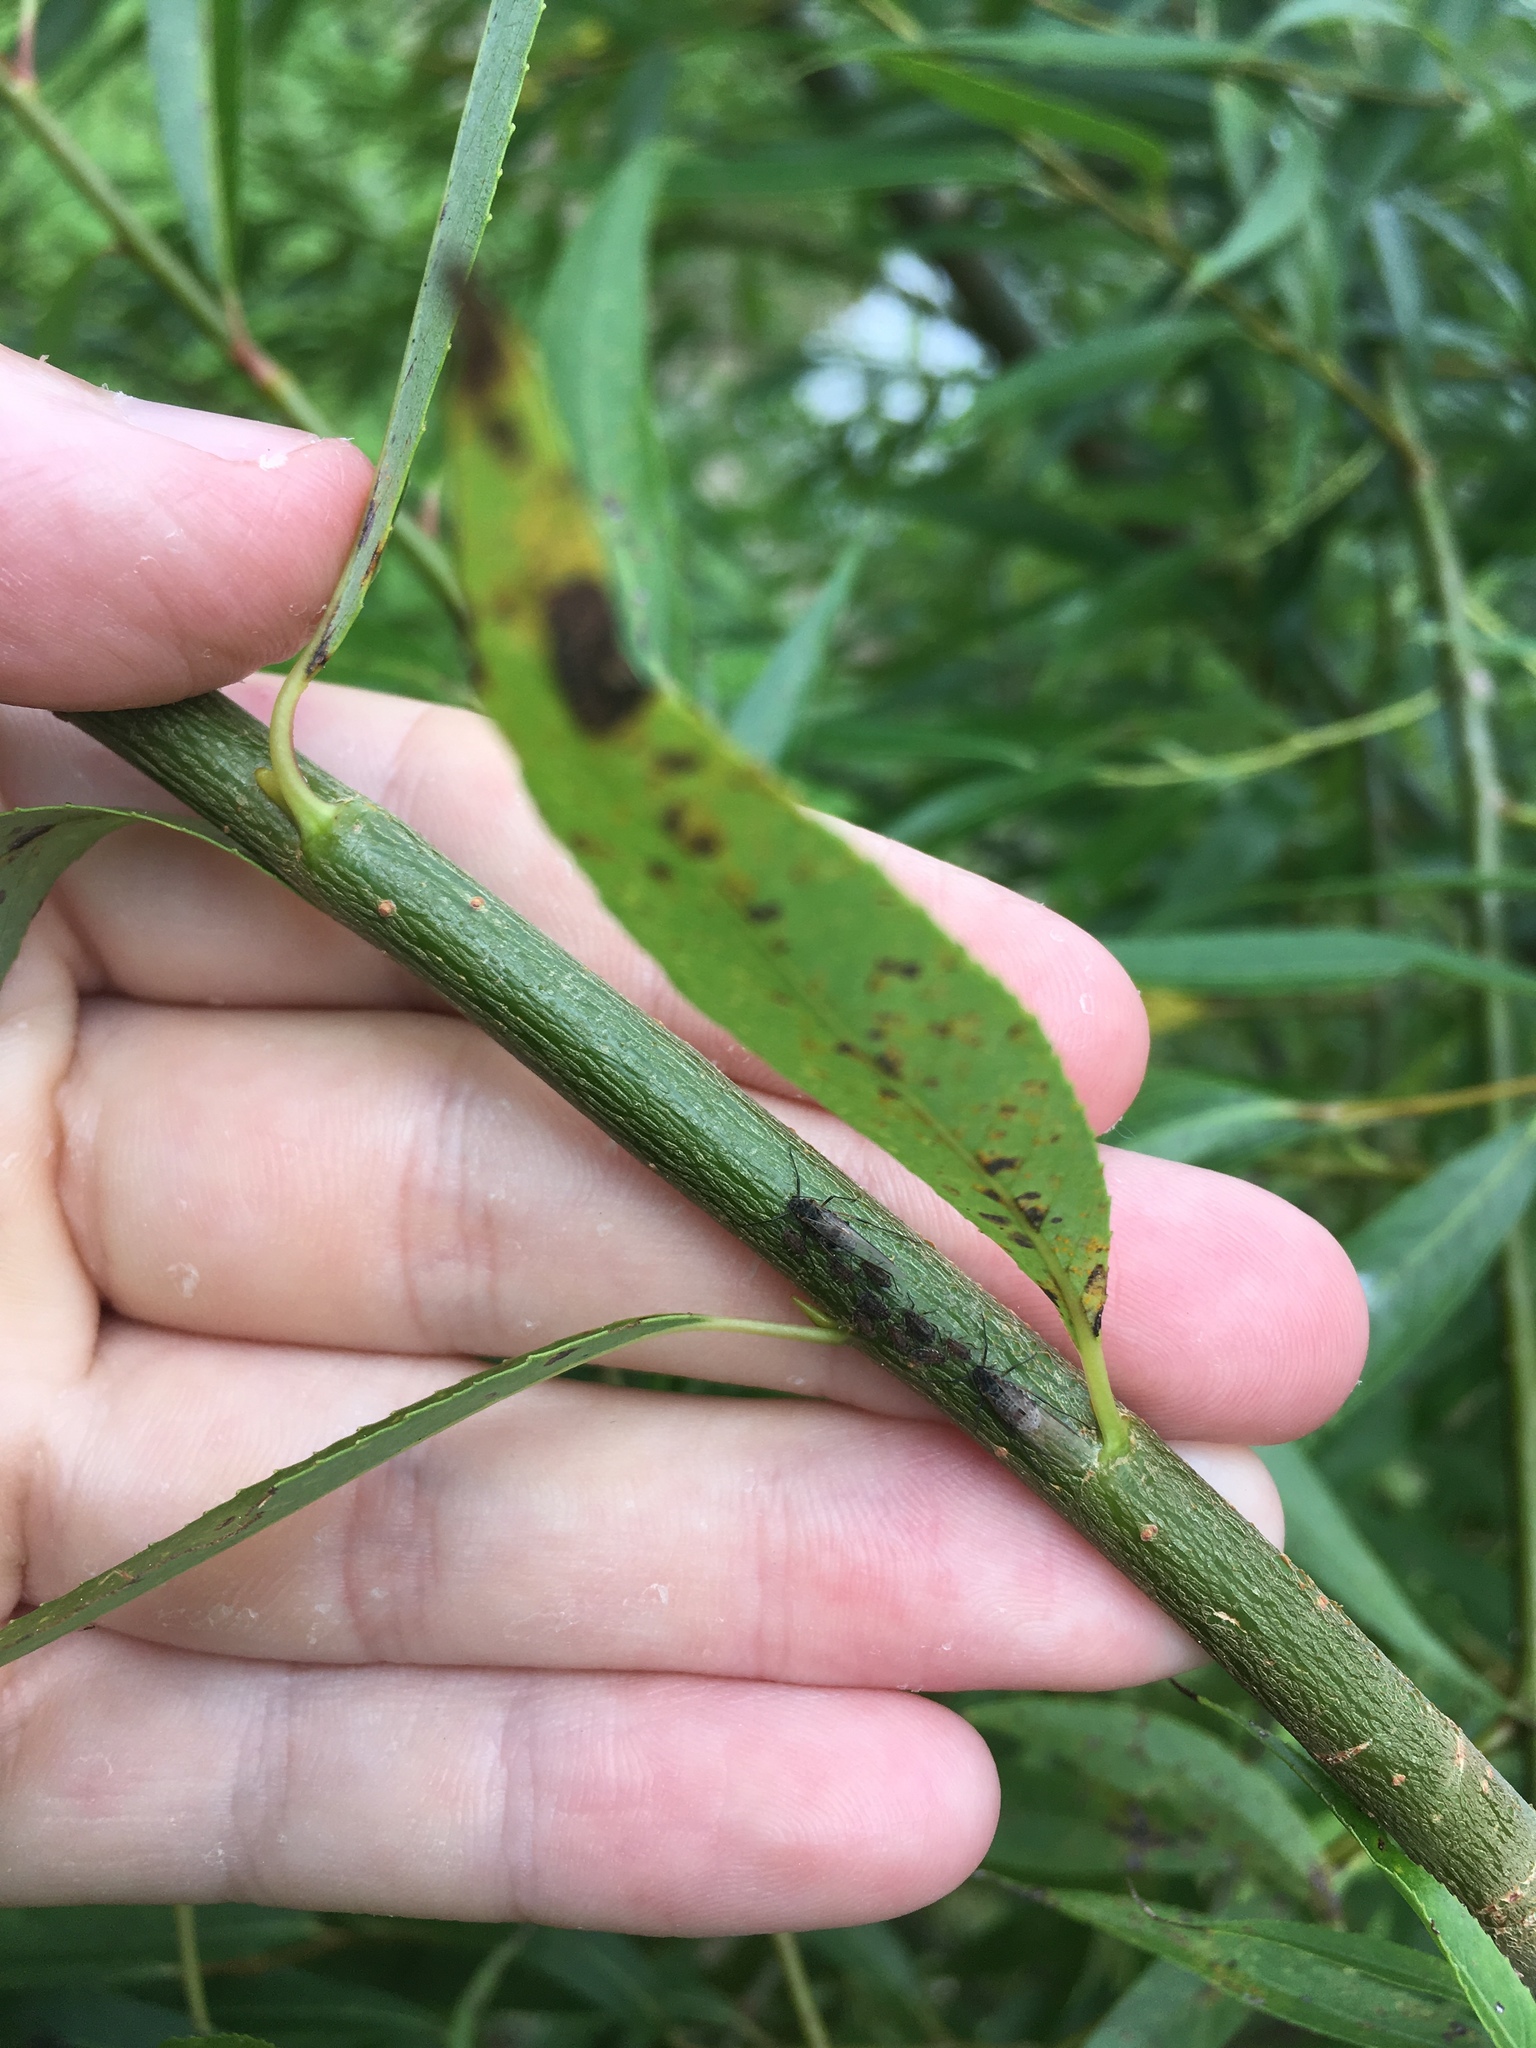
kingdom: Animalia
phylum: Arthropoda
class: Insecta
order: Hemiptera
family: Aphididae
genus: Tuberolachnus
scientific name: Tuberolachnus salignus
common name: Giant willow aphid
